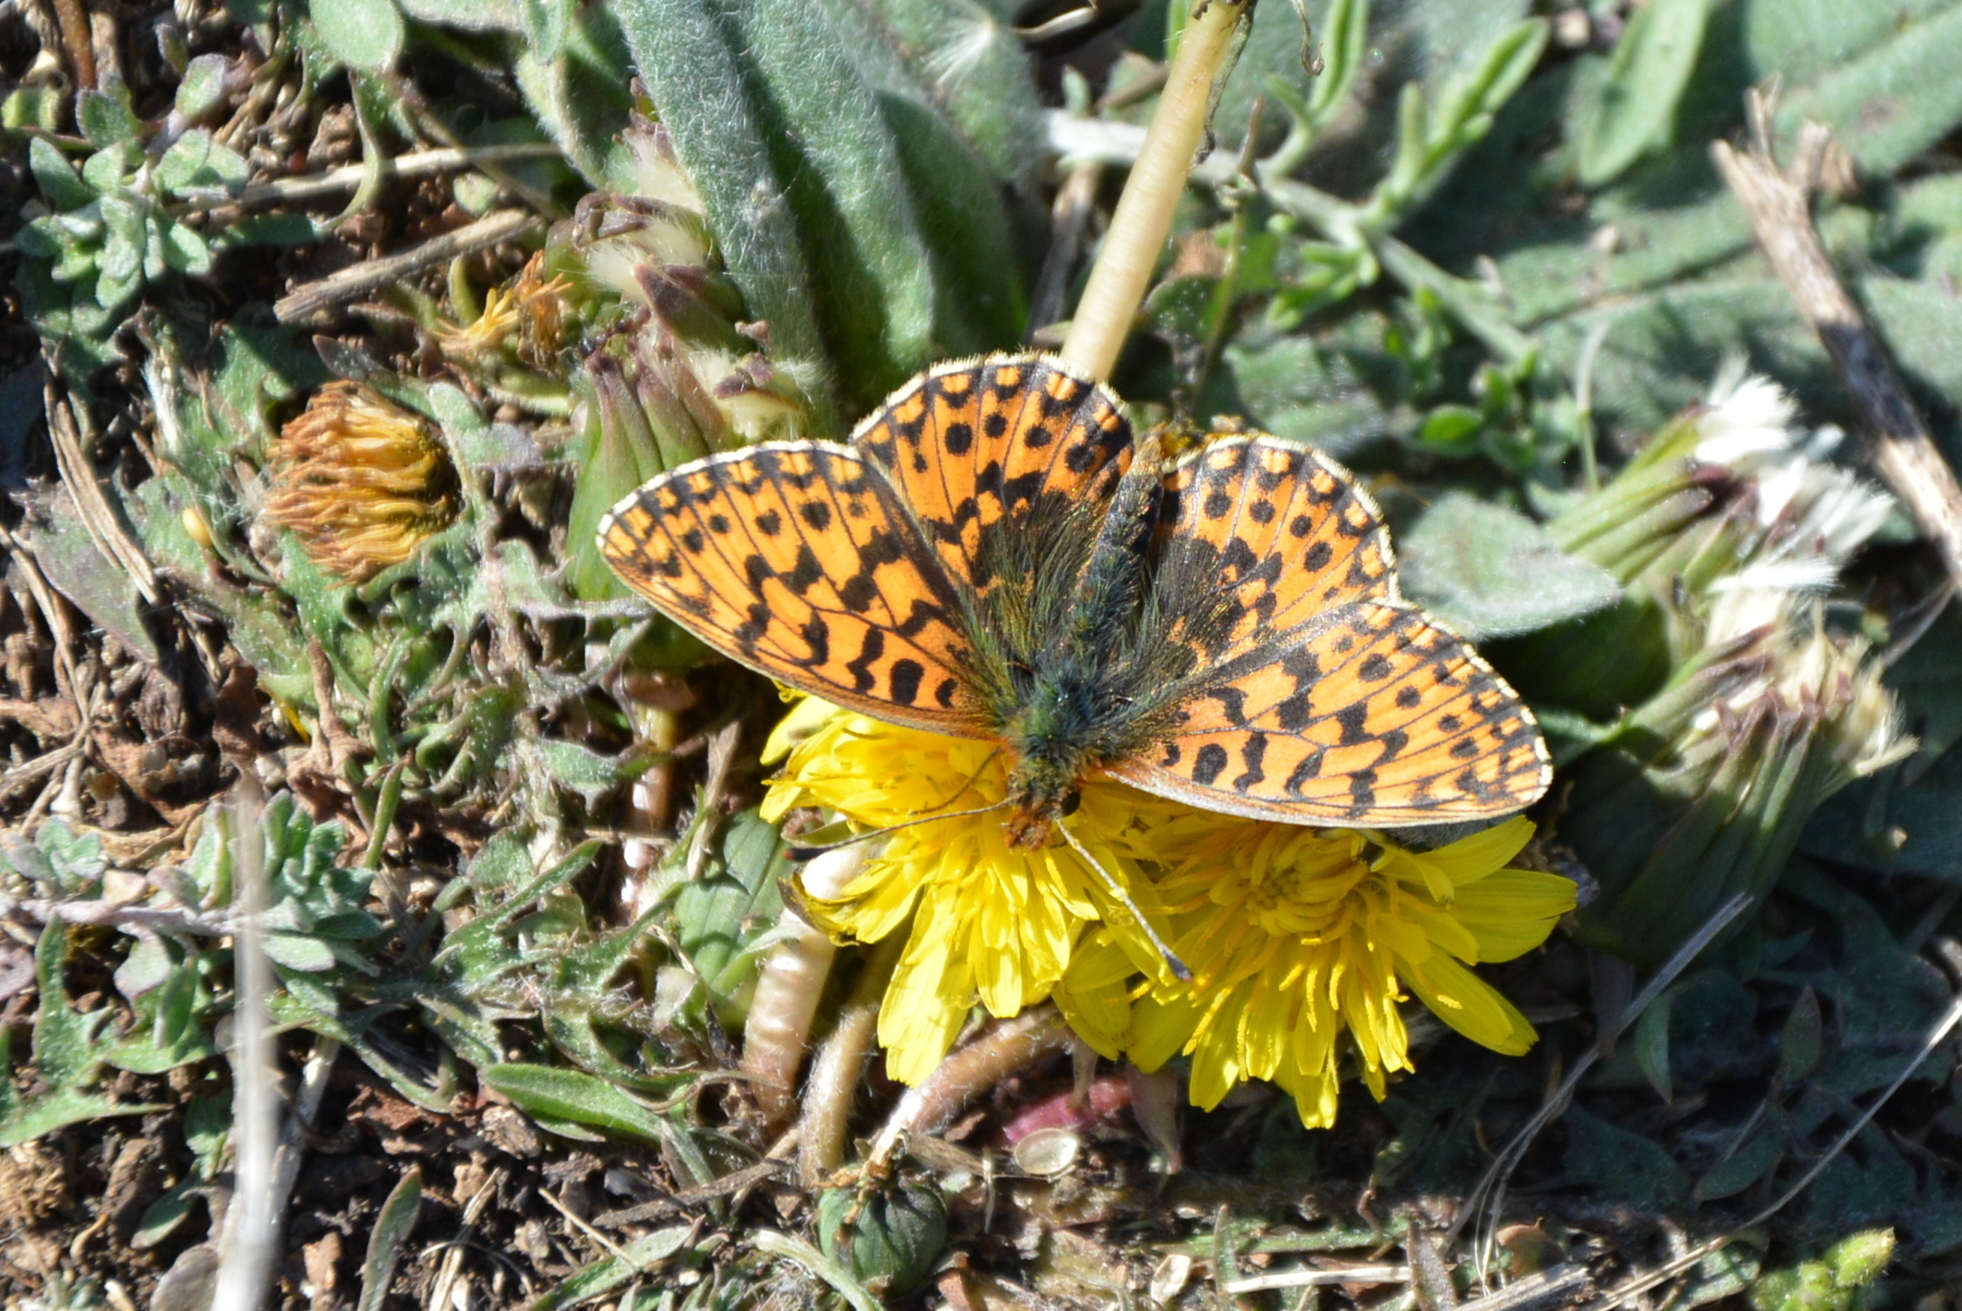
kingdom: Animalia
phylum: Arthropoda
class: Insecta
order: Lepidoptera
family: Nymphalidae
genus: Boloria
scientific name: Boloria dia
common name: Weaver's fritillary
